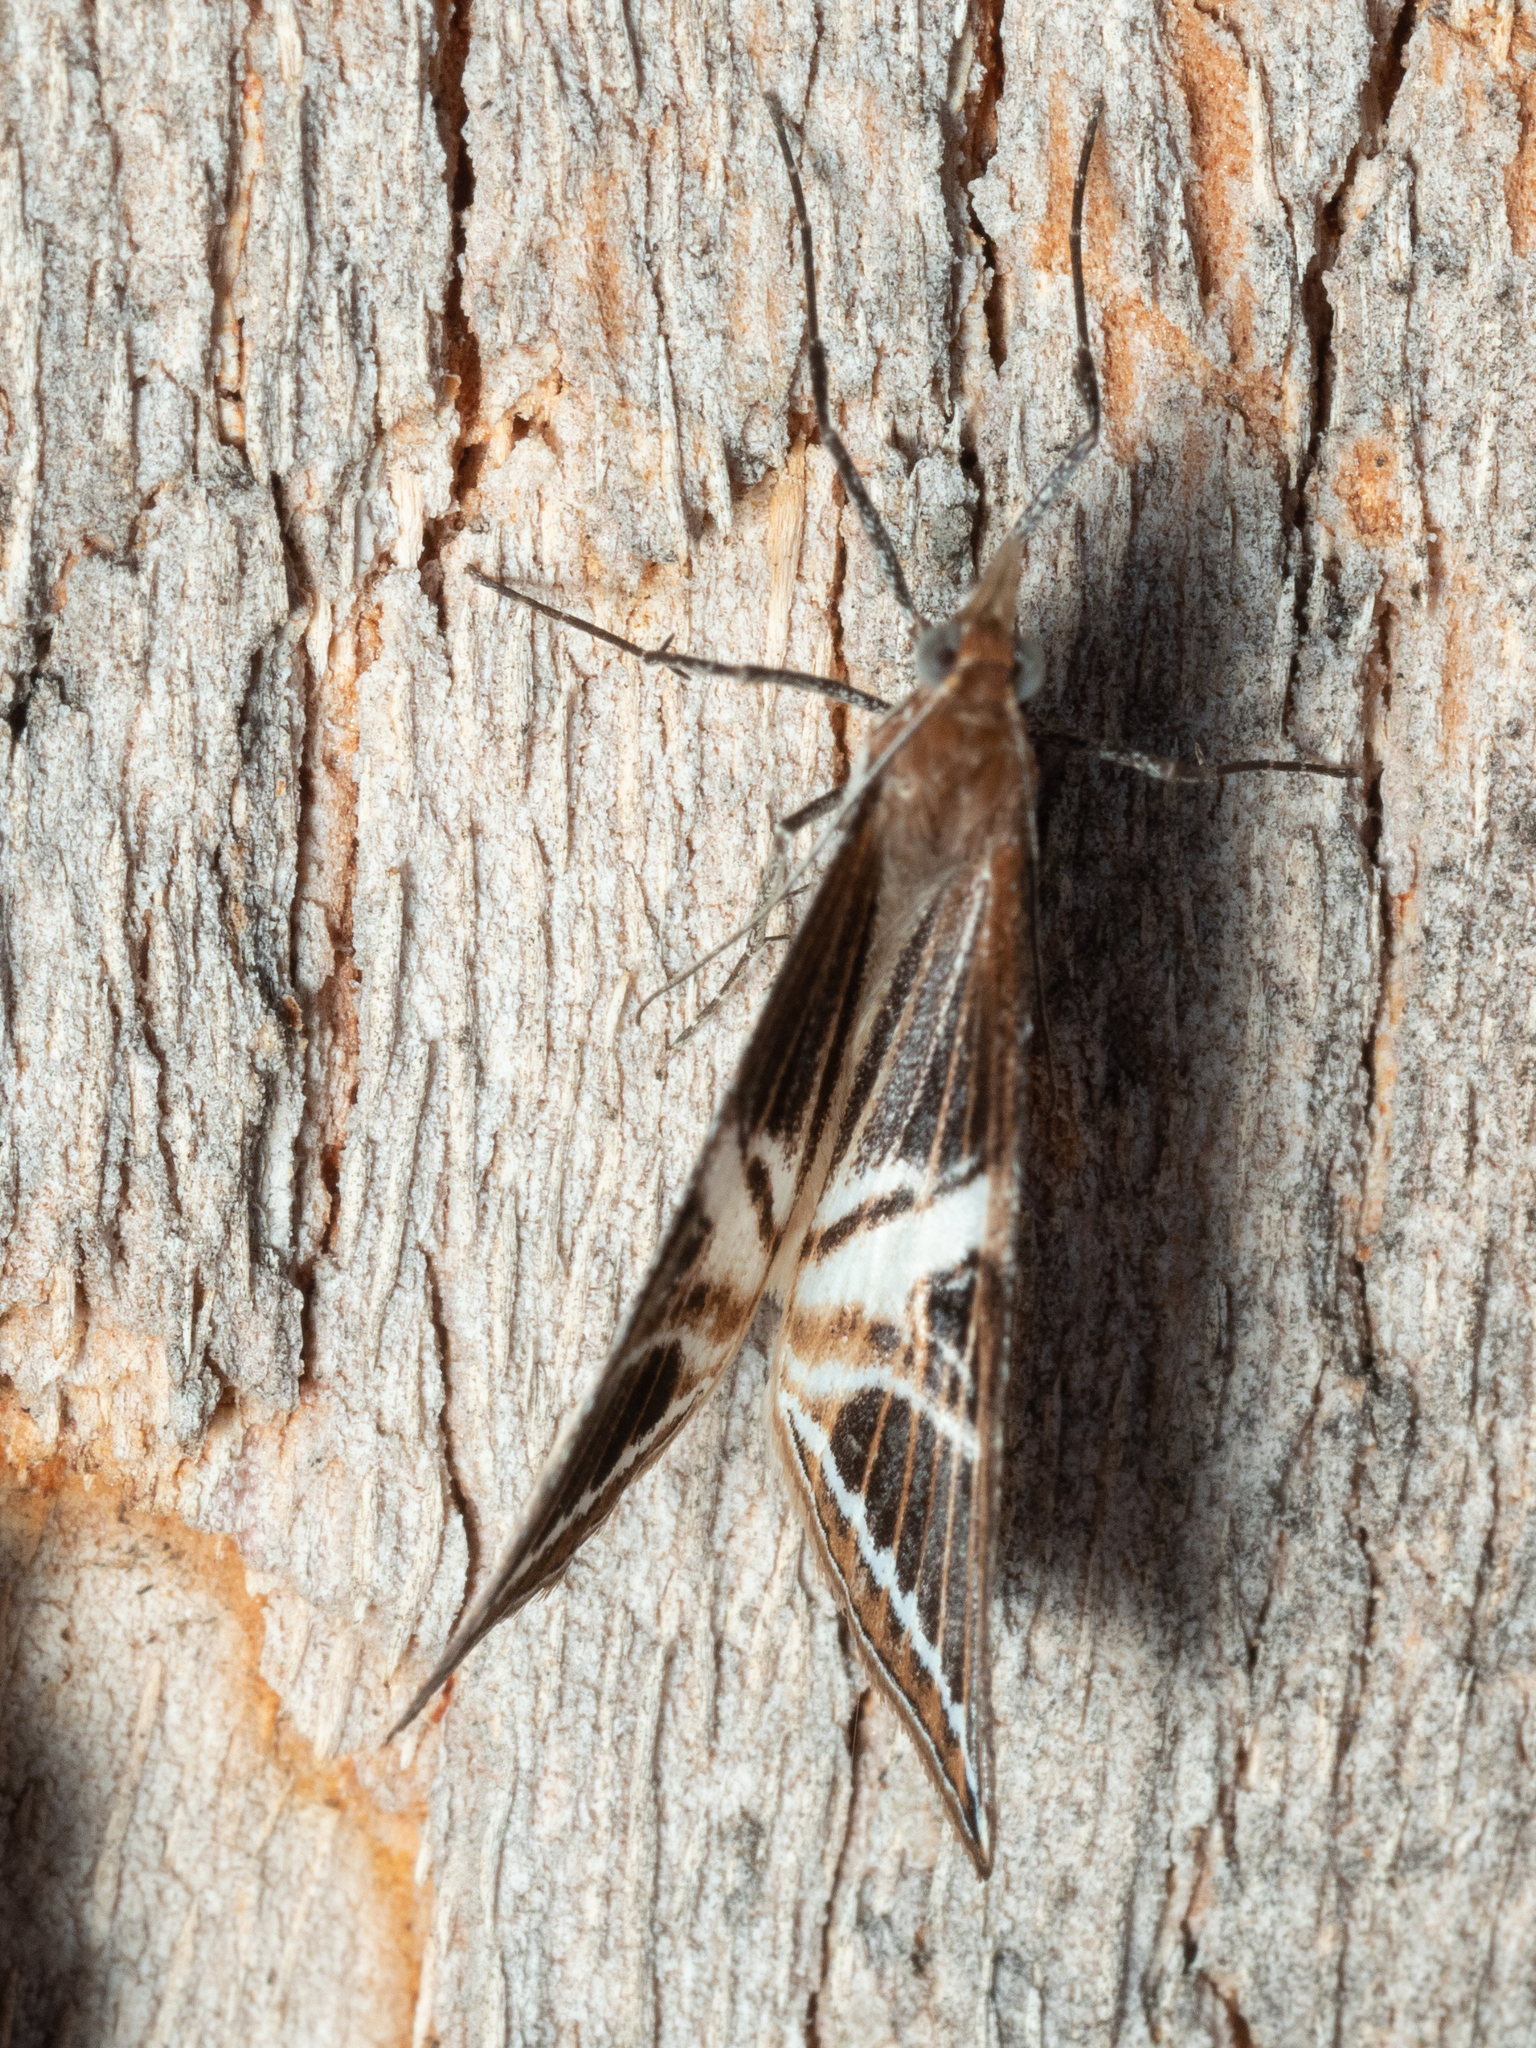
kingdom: Animalia
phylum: Arthropoda
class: Insecta
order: Lepidoptera
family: Geometridae
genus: Phrataria
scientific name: Phrataria transcissata
